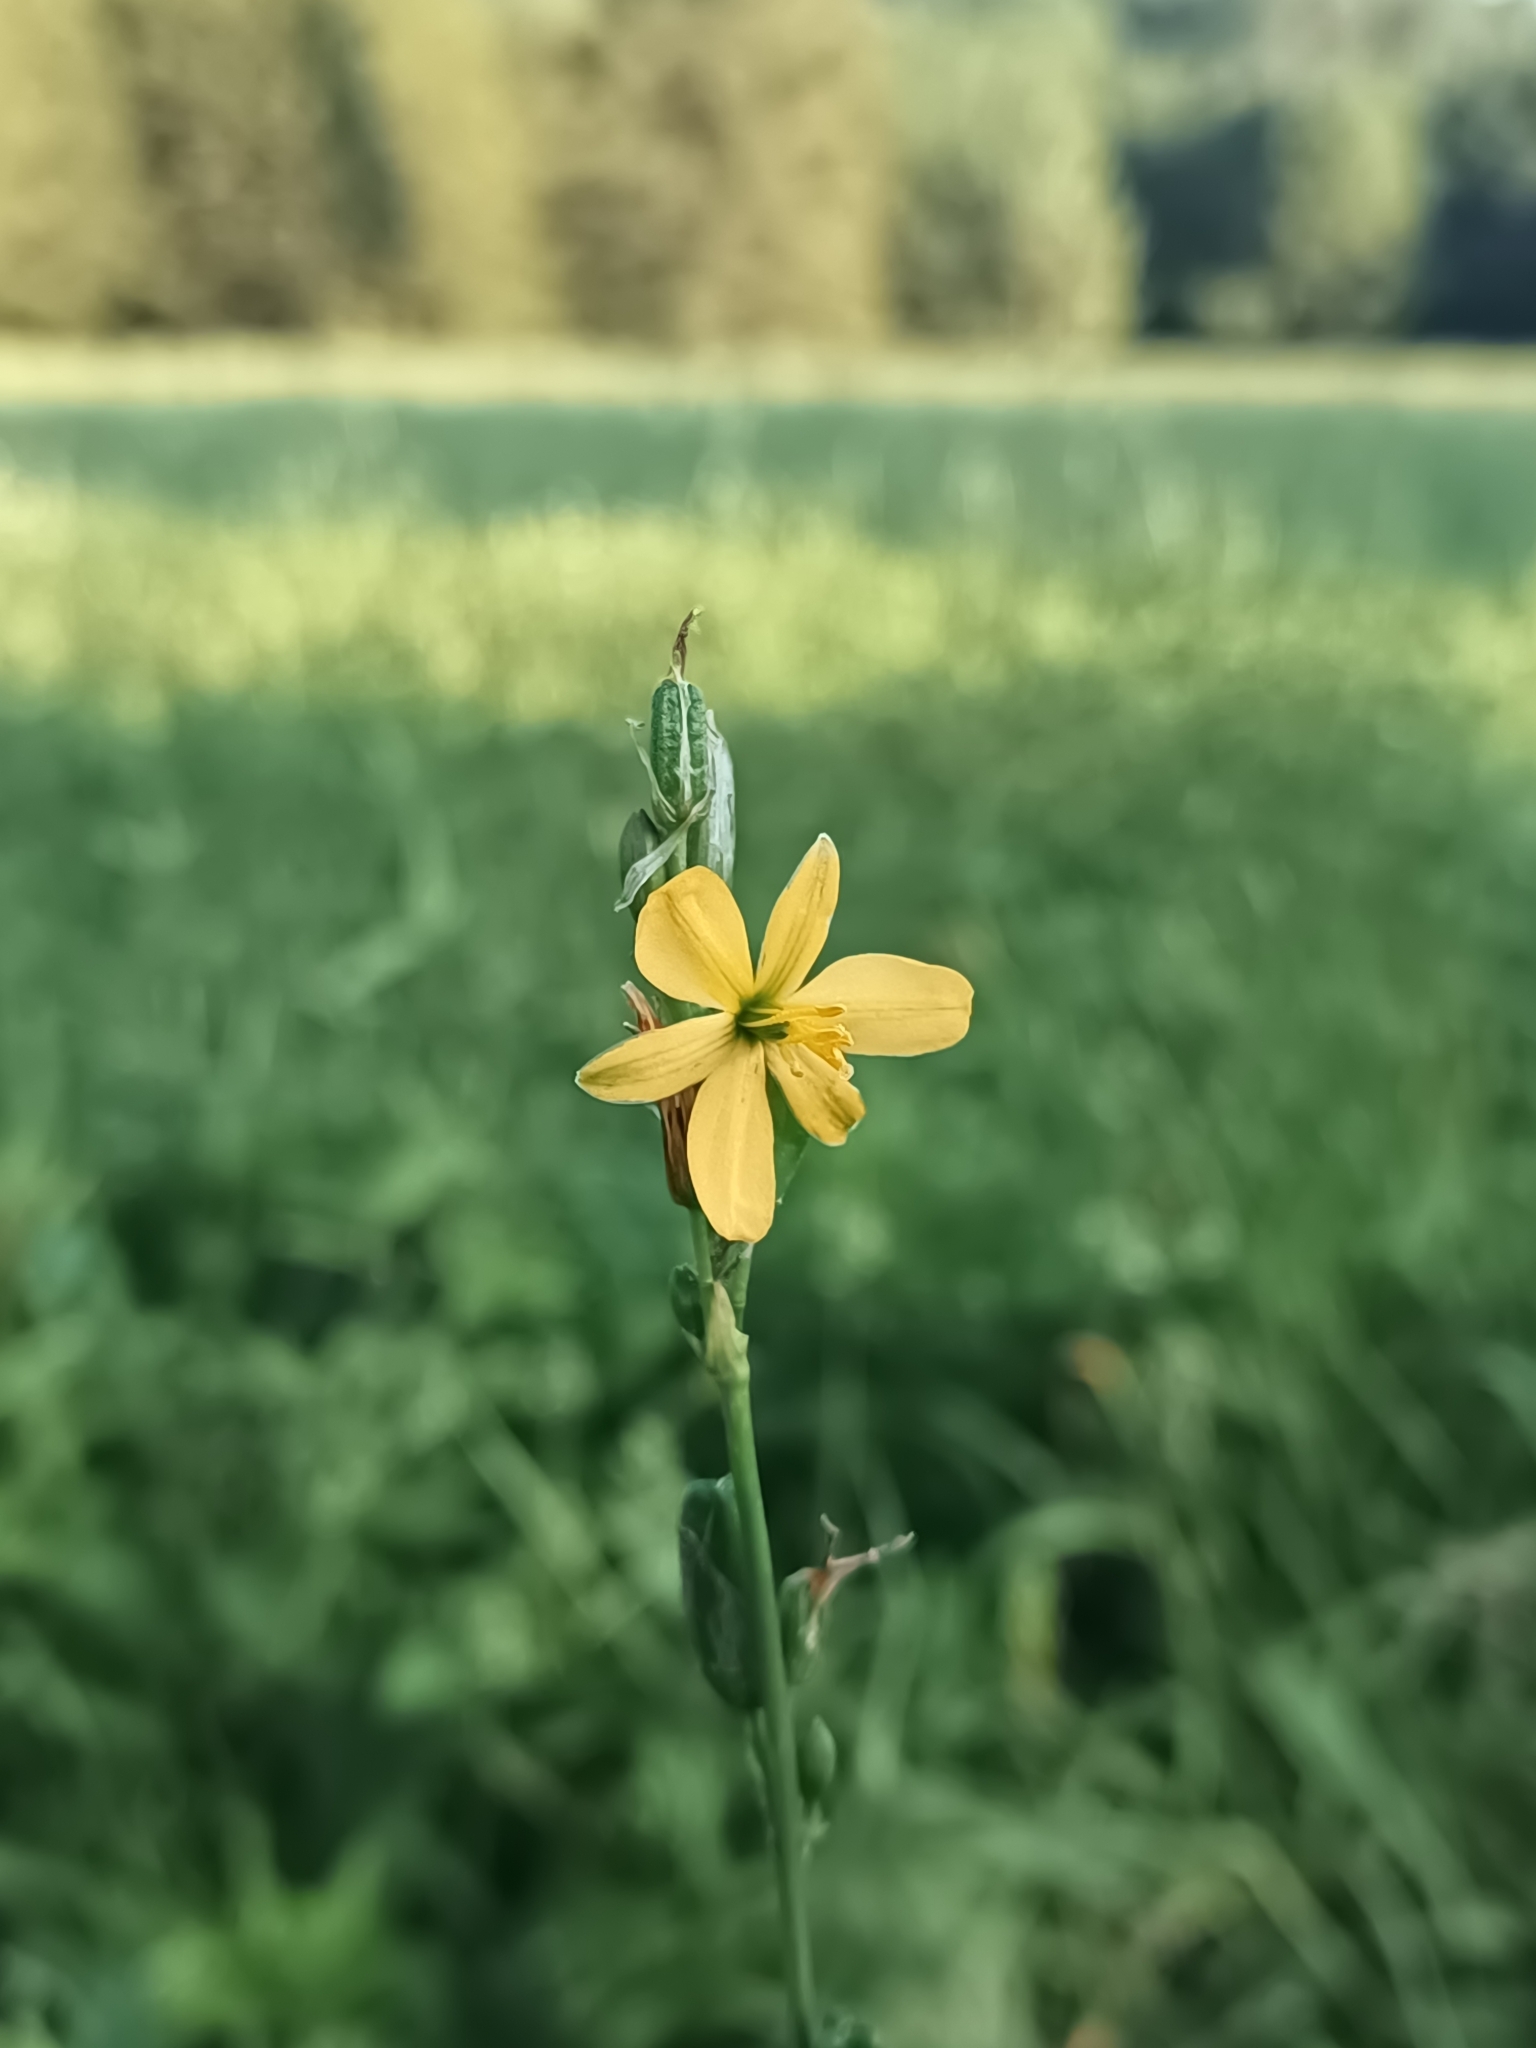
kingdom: Plantae
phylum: Tracheophyta
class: Liliopsida
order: Asparagales
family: Asparagaceae
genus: Echeandia
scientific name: Echeandia flavescens
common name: Amberlily
